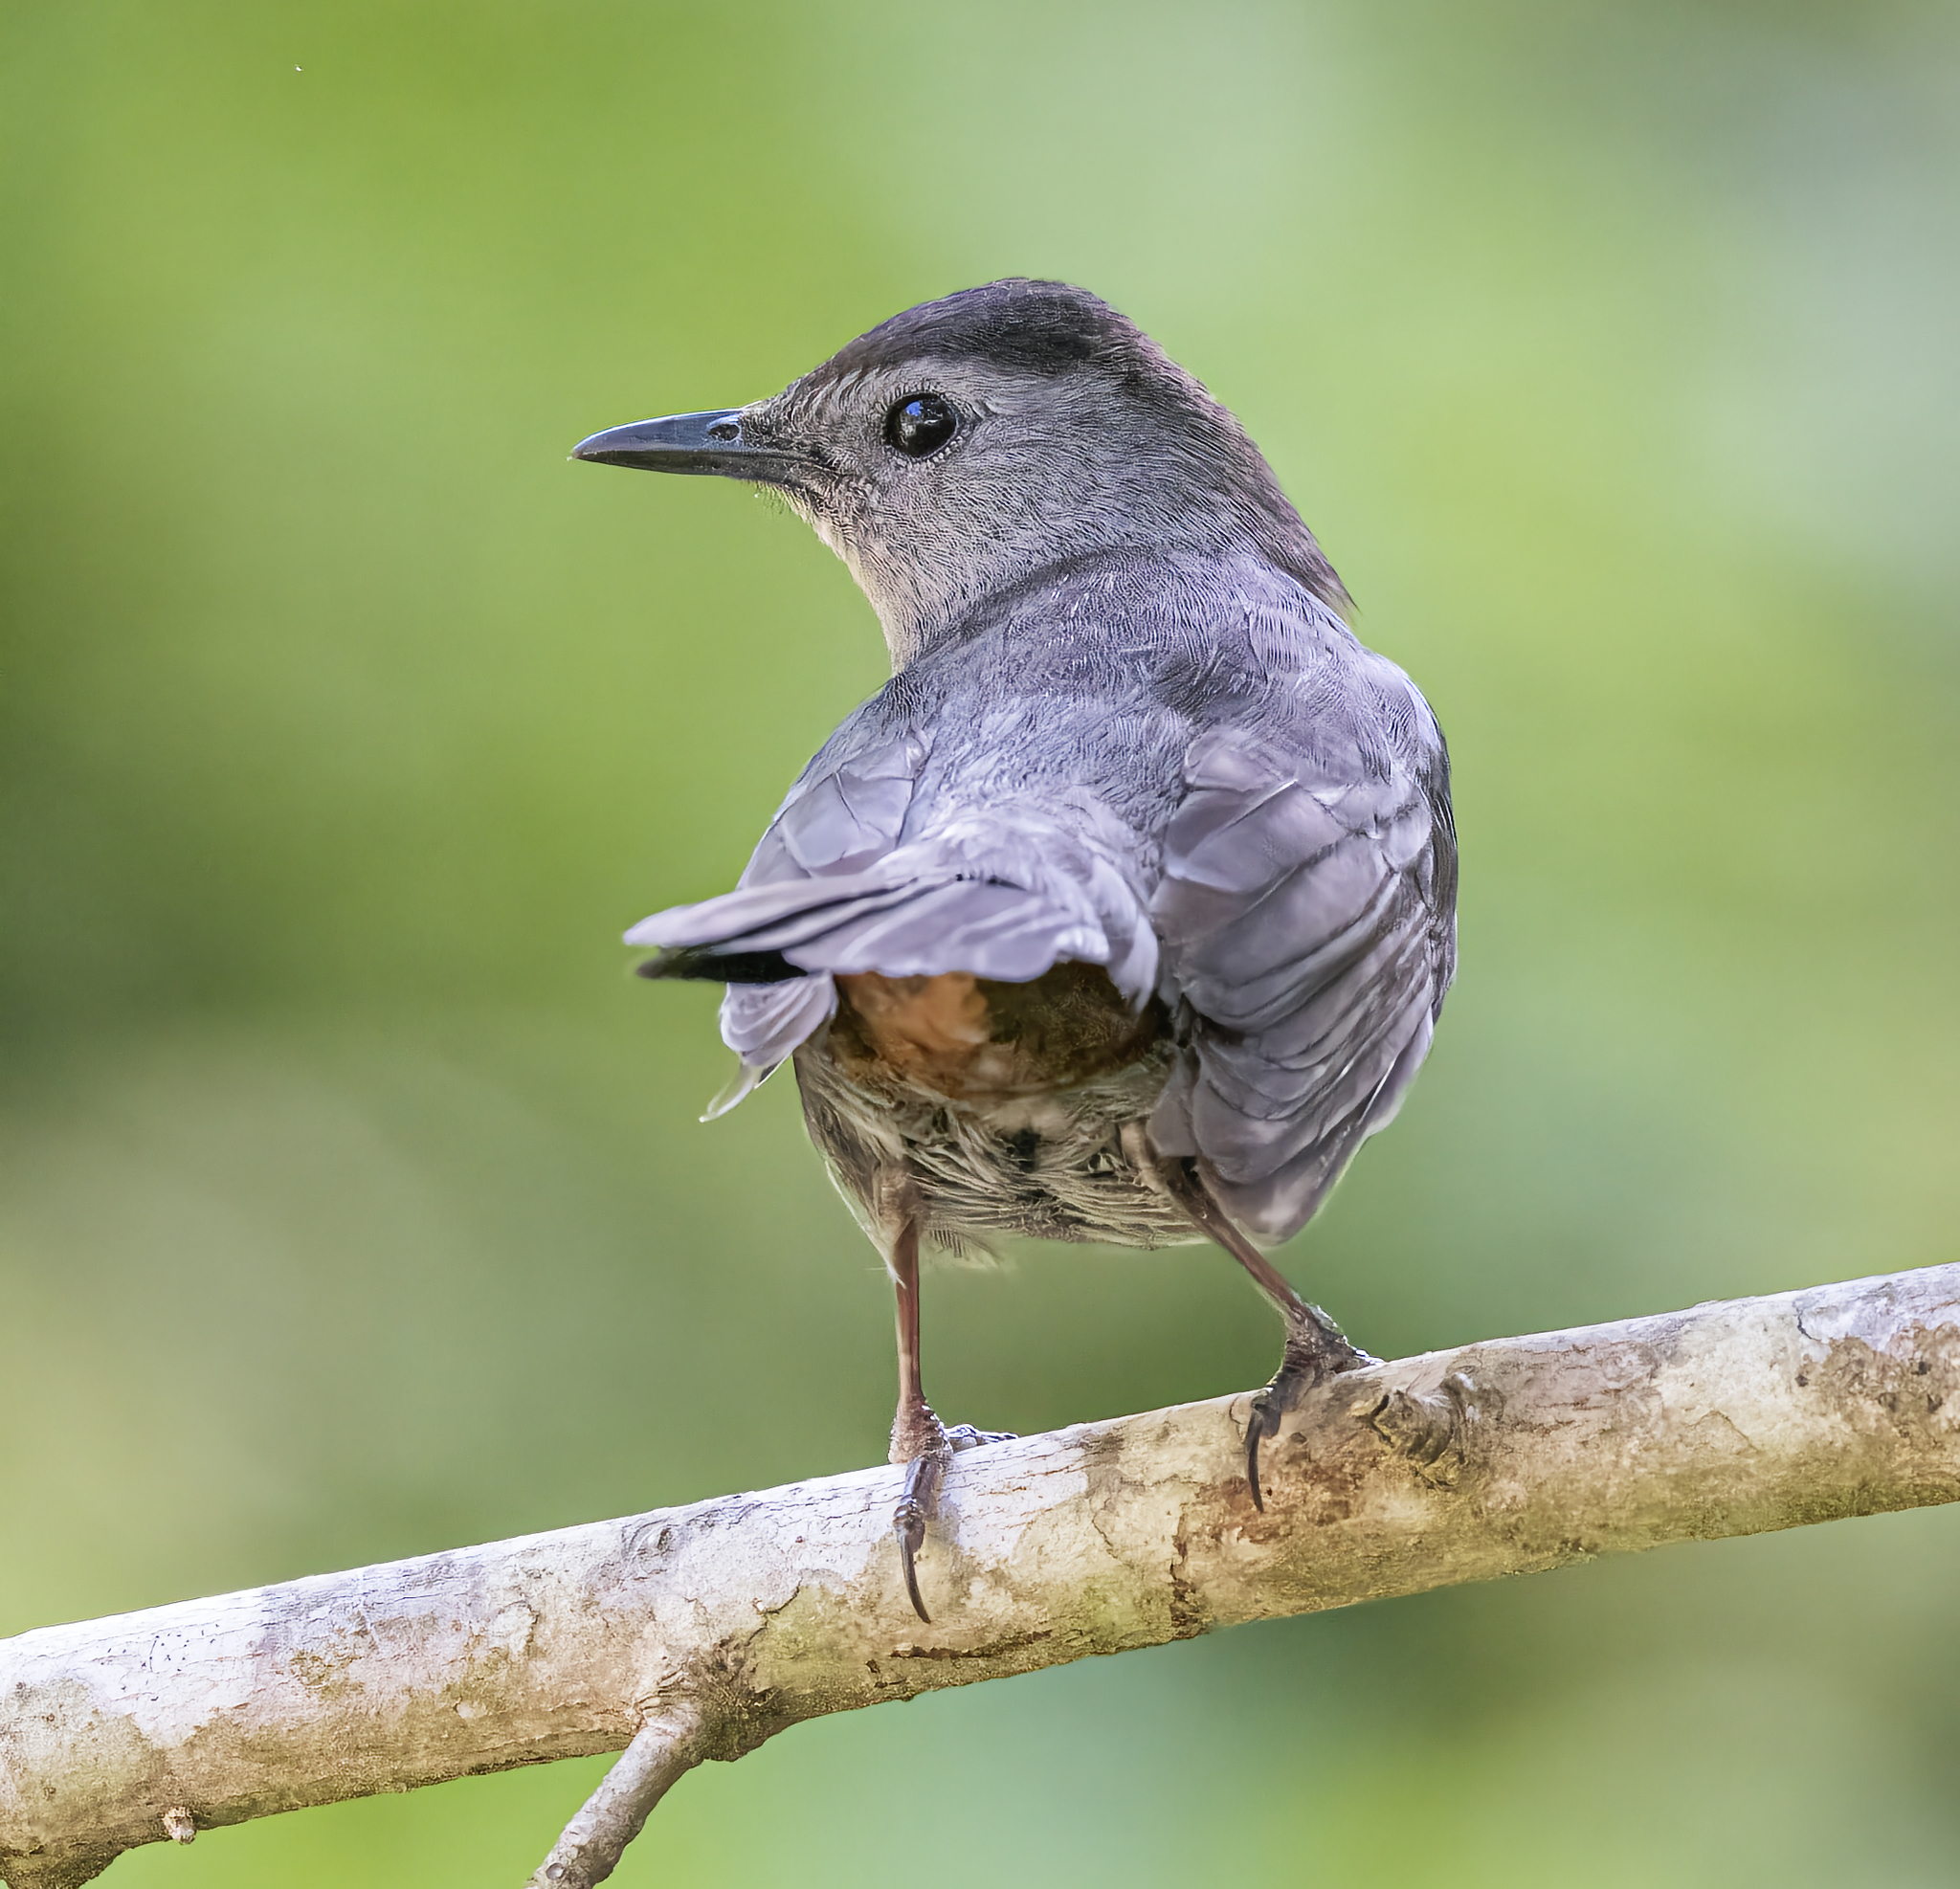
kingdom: Animalia
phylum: Chordata
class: Aves
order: Passeriformes
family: Mimidae
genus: Dumetella
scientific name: Dumetella carolinensis
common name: Gray catbird
